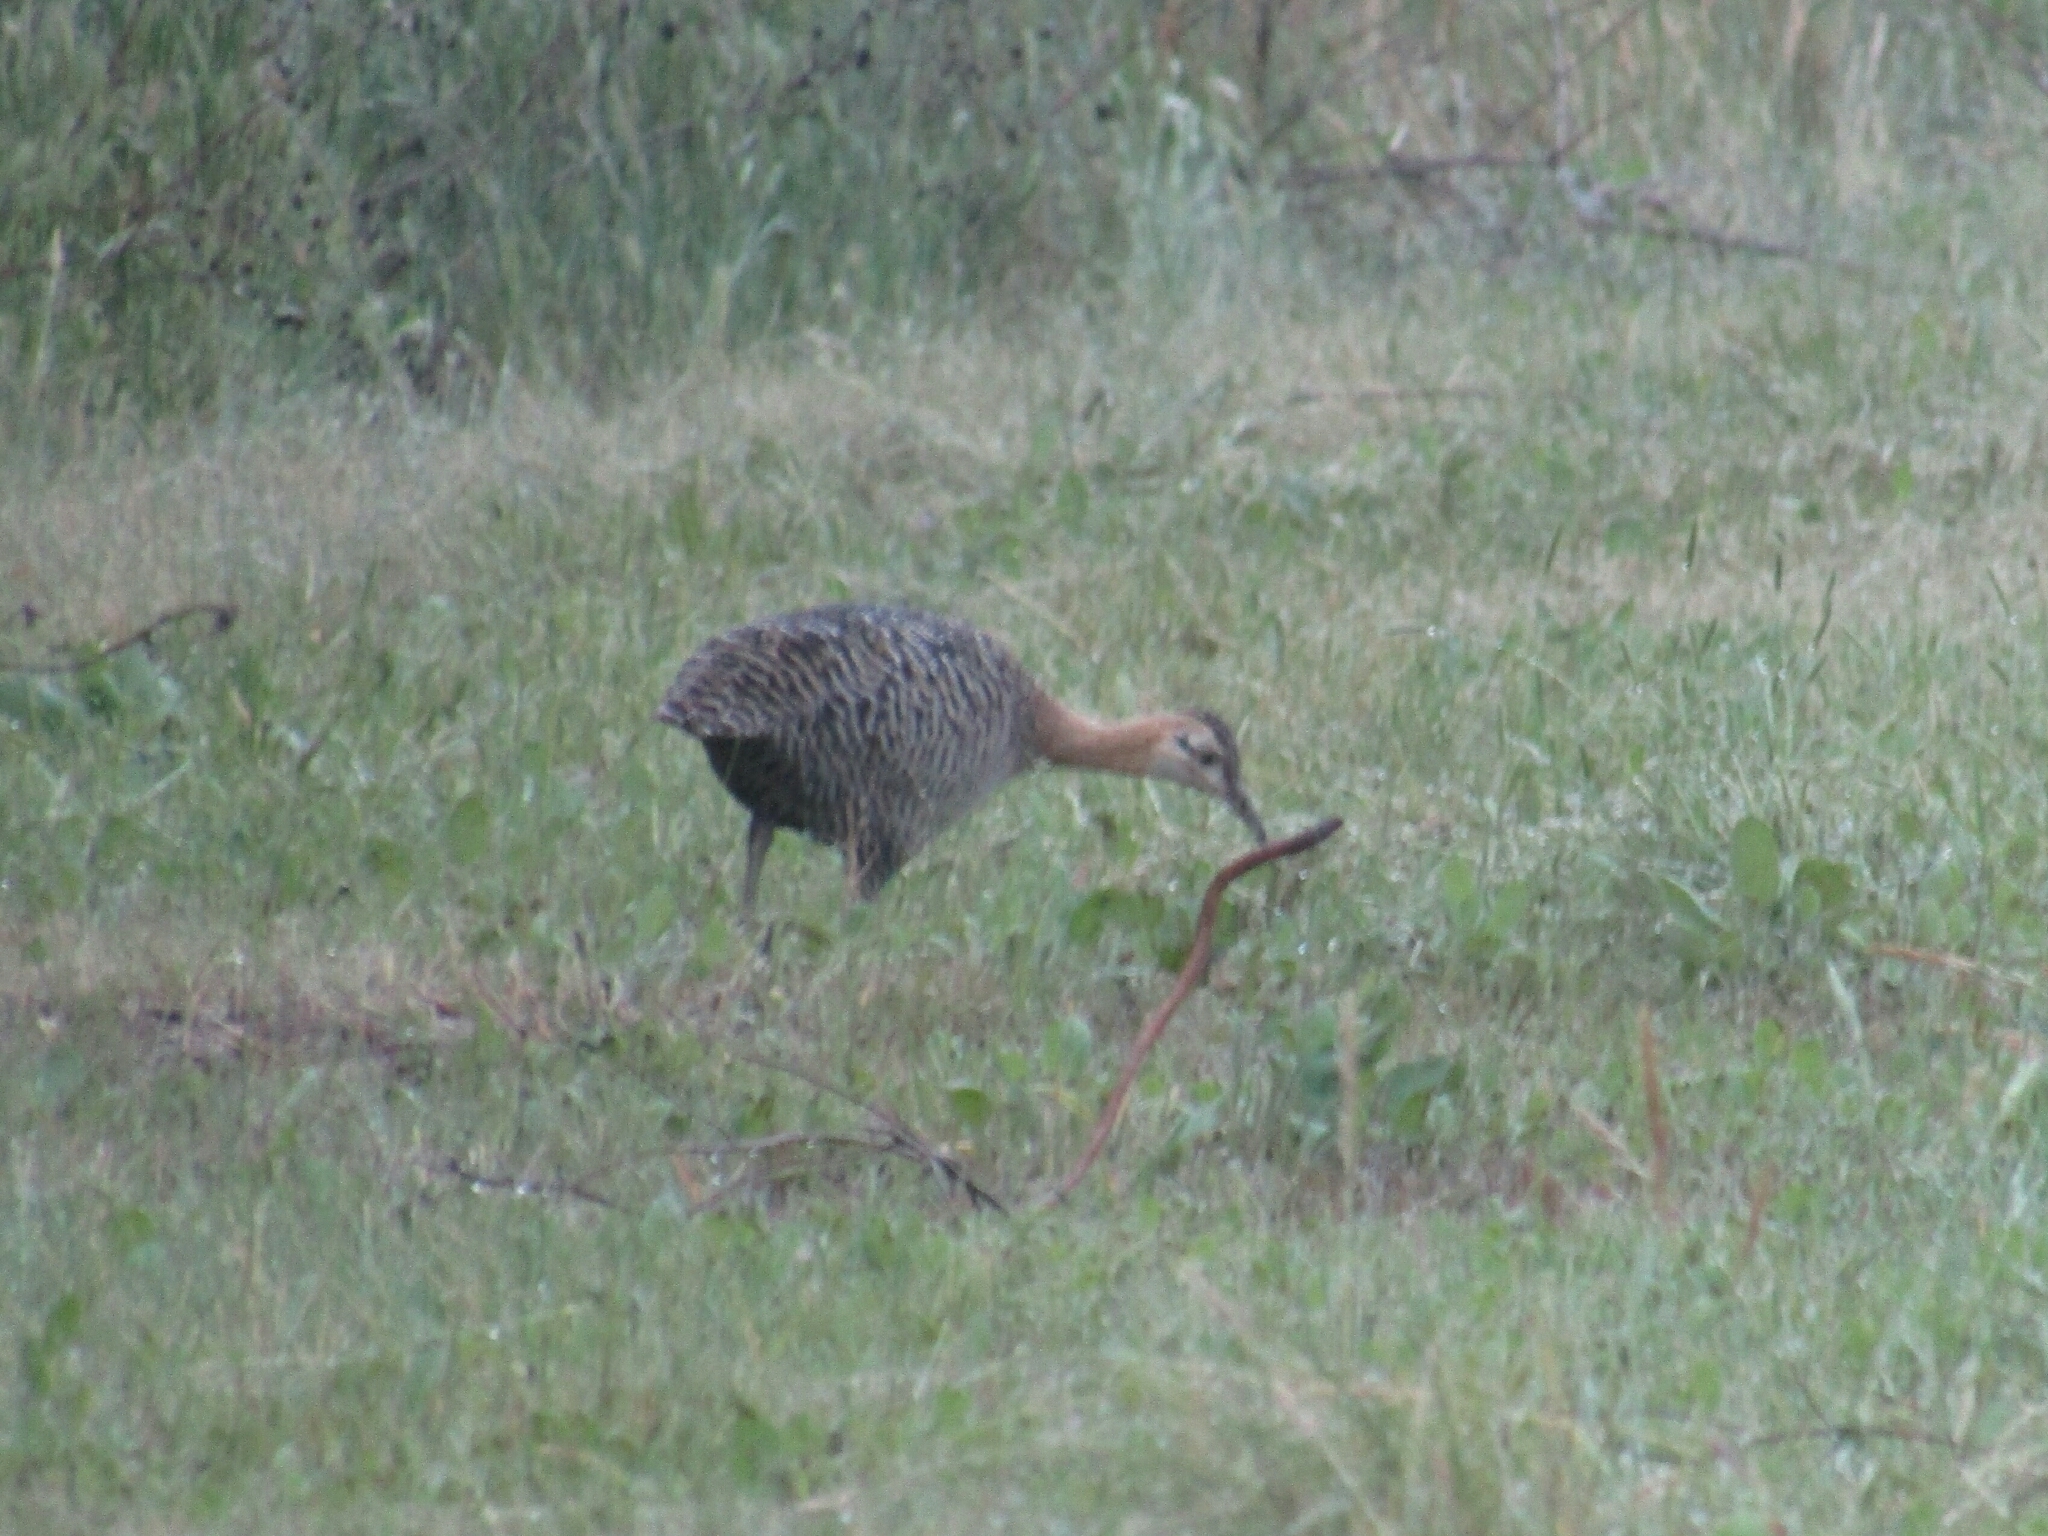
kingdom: Animalia
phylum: Chordata
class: Aves
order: Tinamiformes
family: Tinamidae
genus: Rhynchotus
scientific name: Rhynchotus rufescens
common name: Red-winged tinamou
